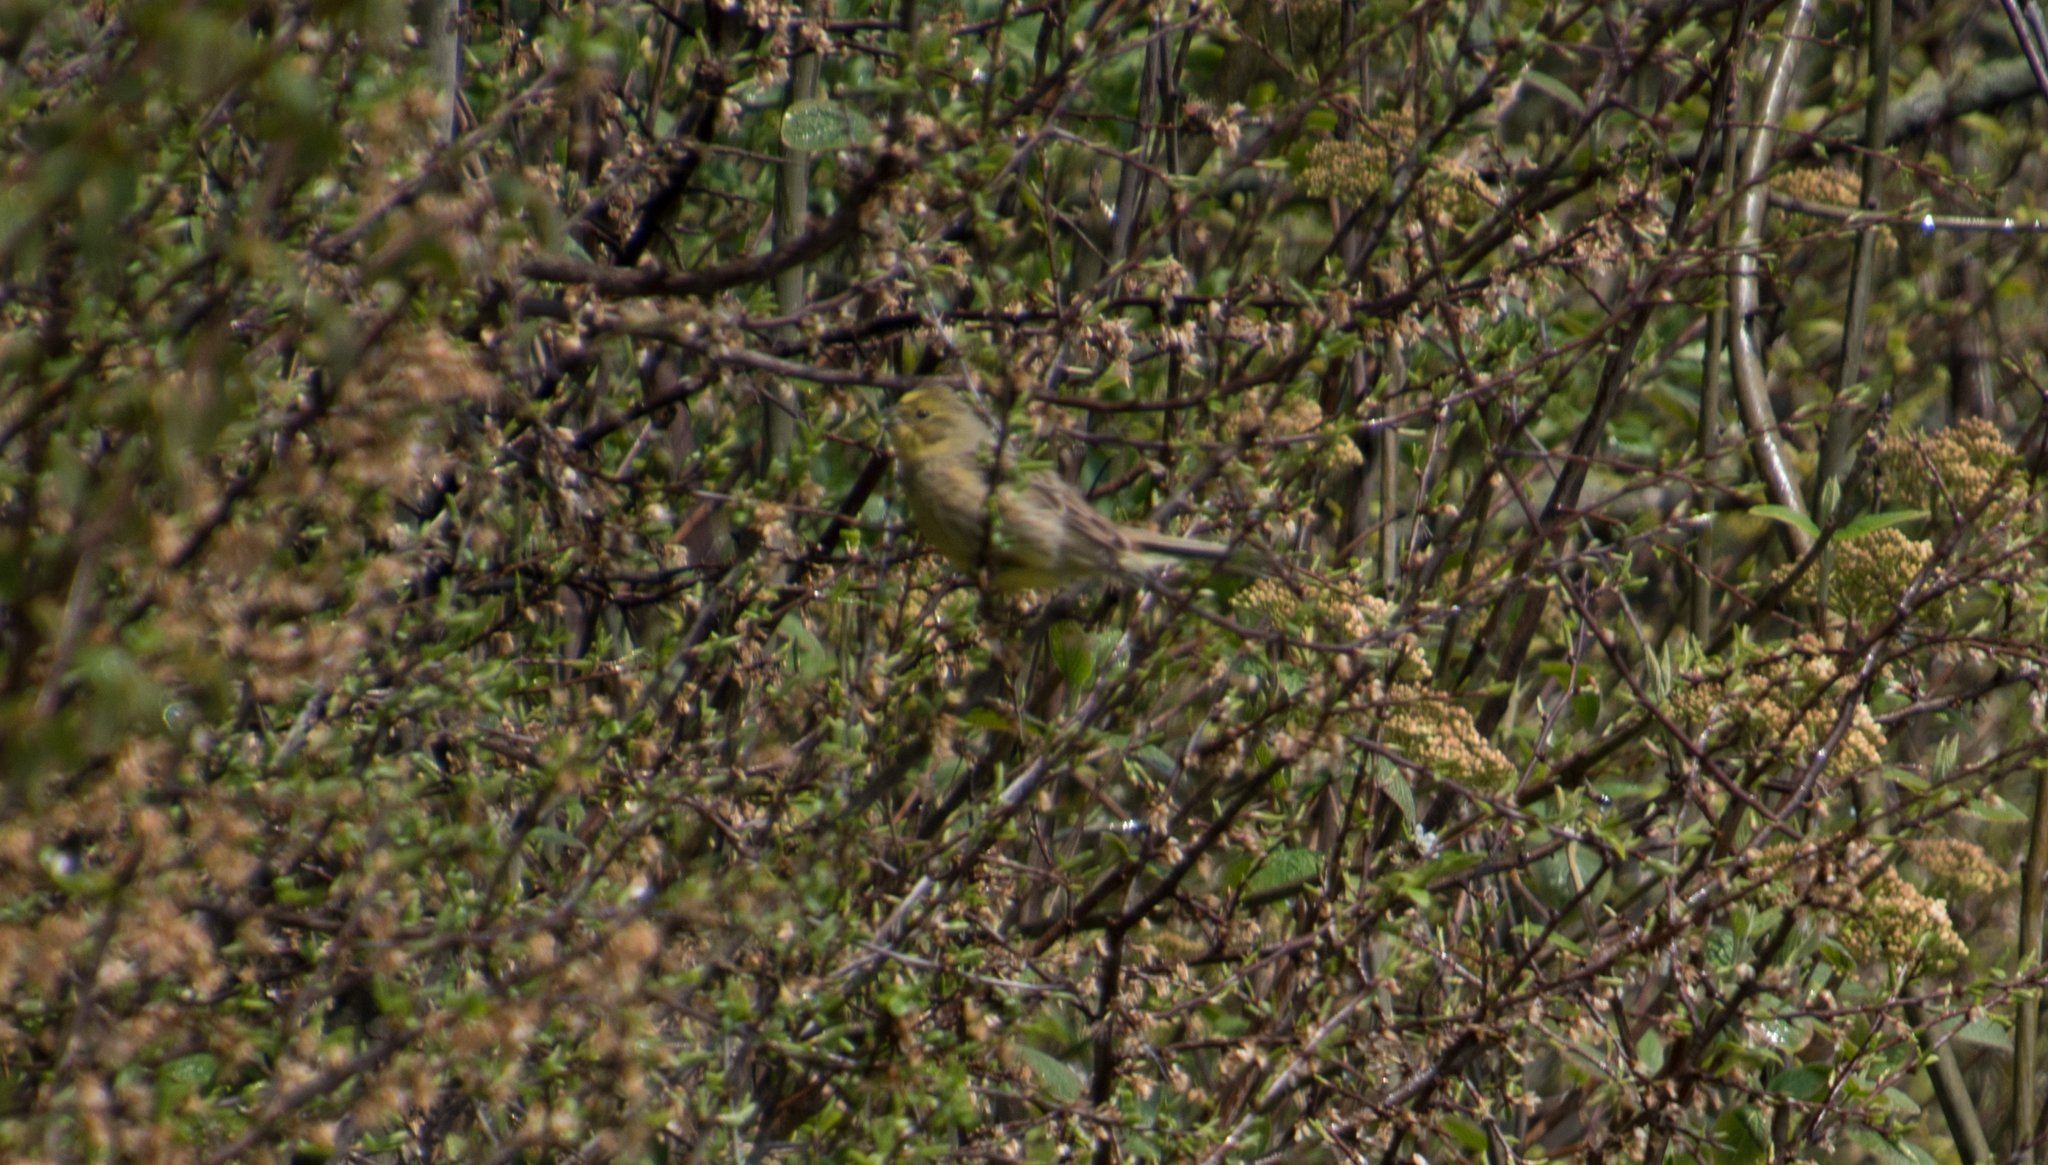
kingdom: Animalia
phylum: Chordata
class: Aves
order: Passeriformes
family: Emberizidae
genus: Emberiza
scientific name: Emberiza citrinella
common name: Yellowhammer
